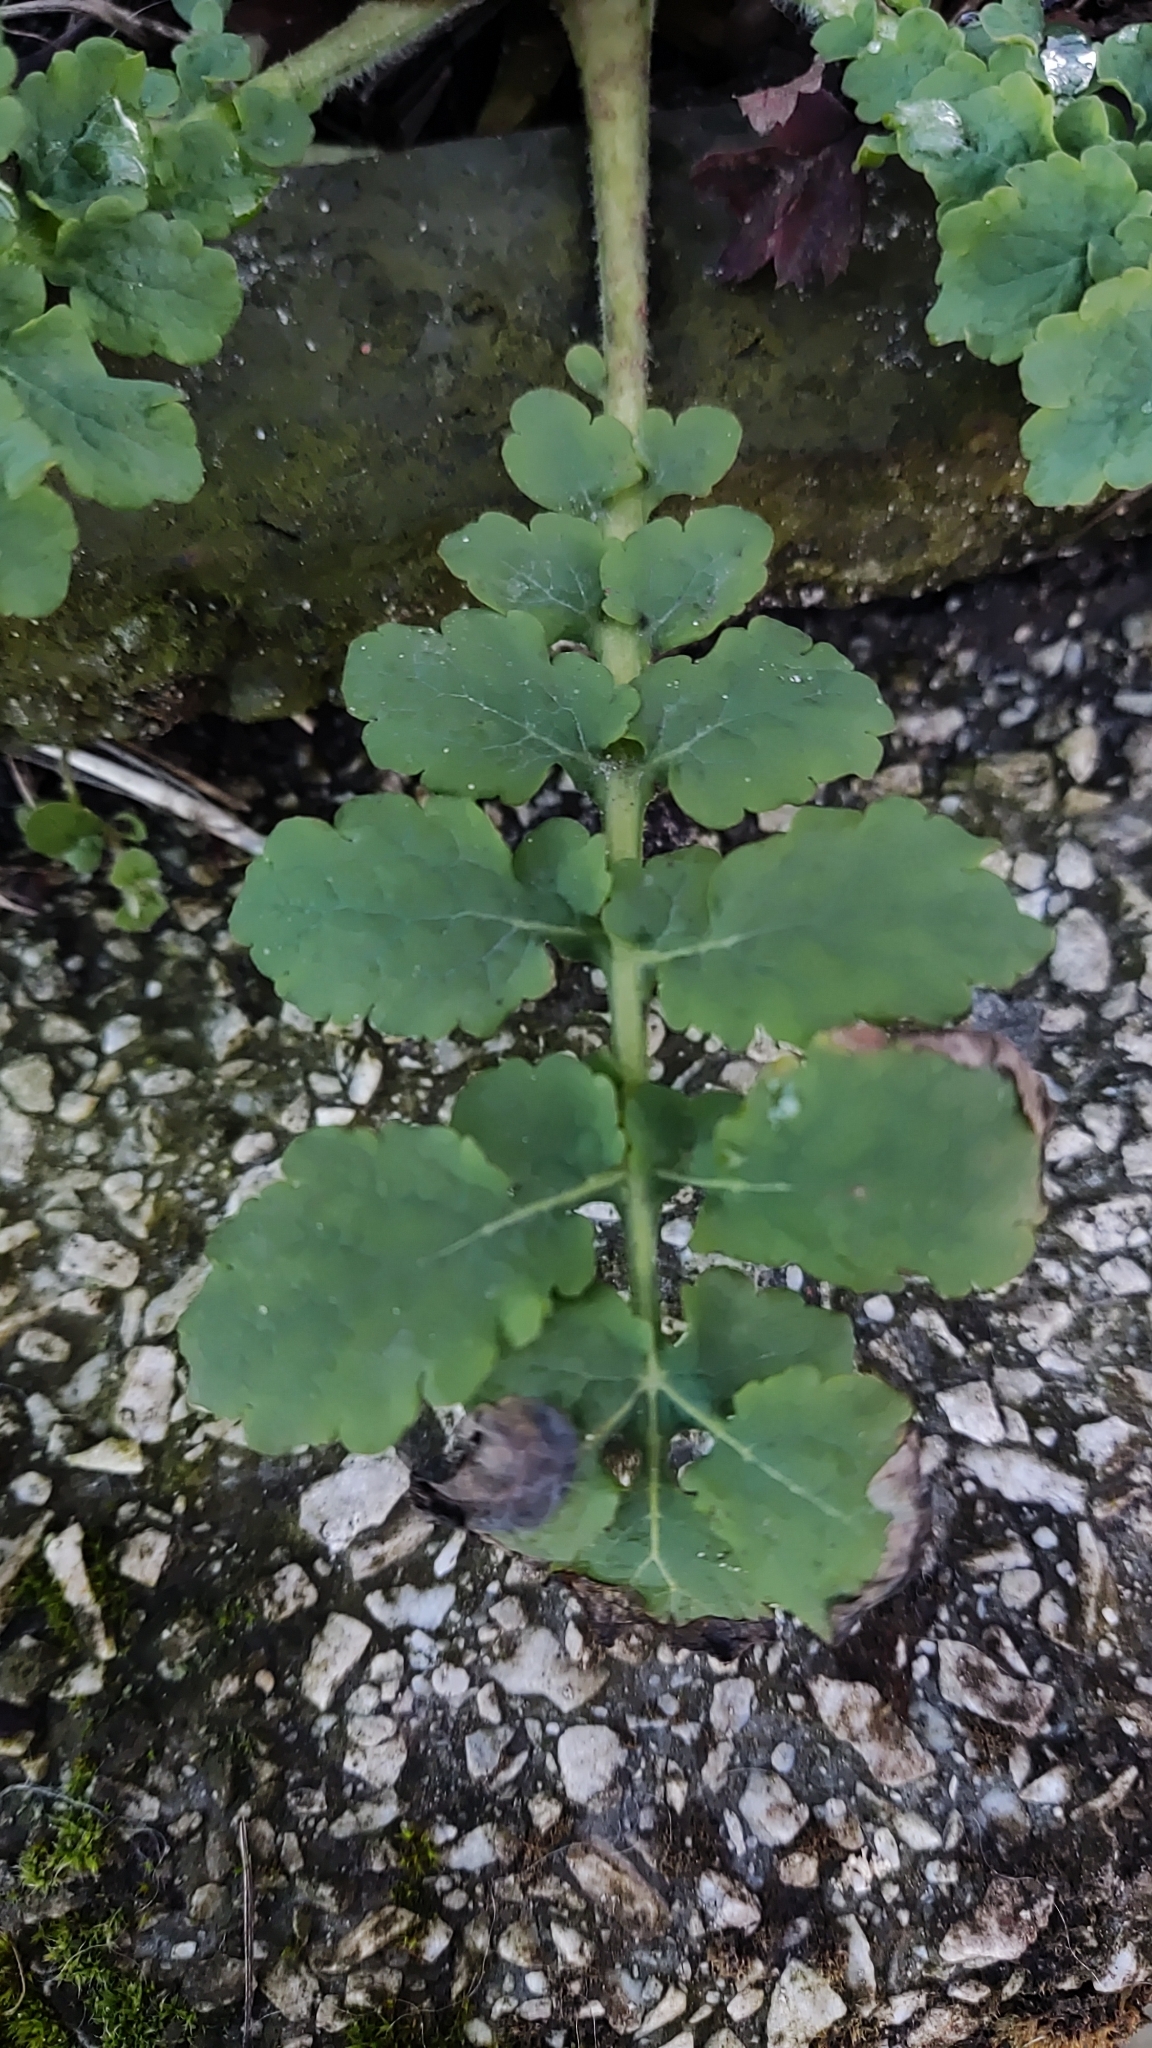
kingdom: Plantae
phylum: Tracheophyta
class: Magnoliopsida
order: Ranunculales
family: Papaveraceae
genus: Chelidonium
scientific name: Chelidonium majus
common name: Greater celandine
